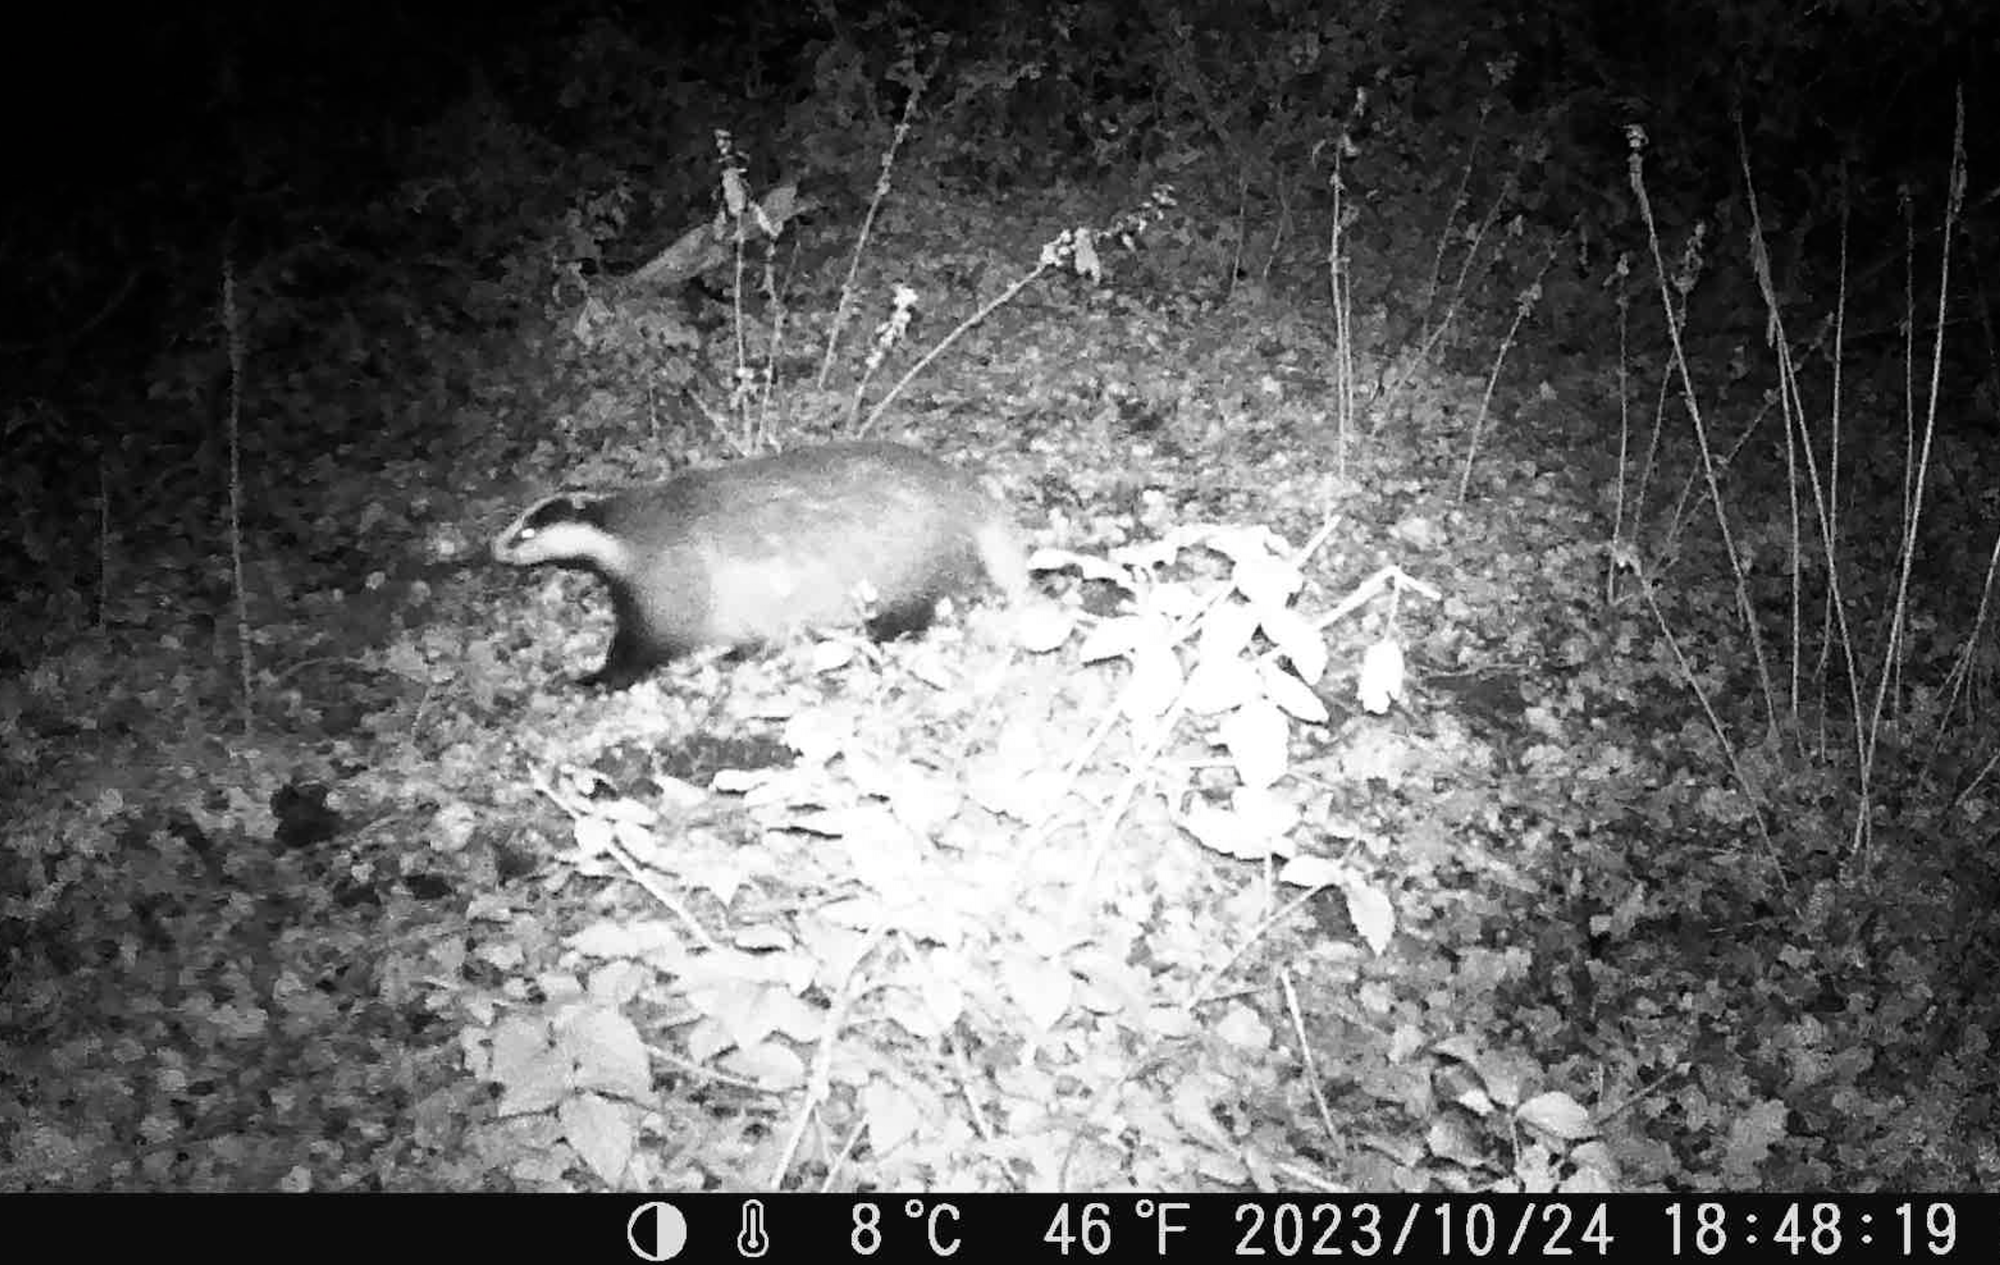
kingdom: Animalia
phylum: Chordata
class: Mammalia
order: Carnivora
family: Mustelidae
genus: Meles
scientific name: Meles meles
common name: Eurasian badger
